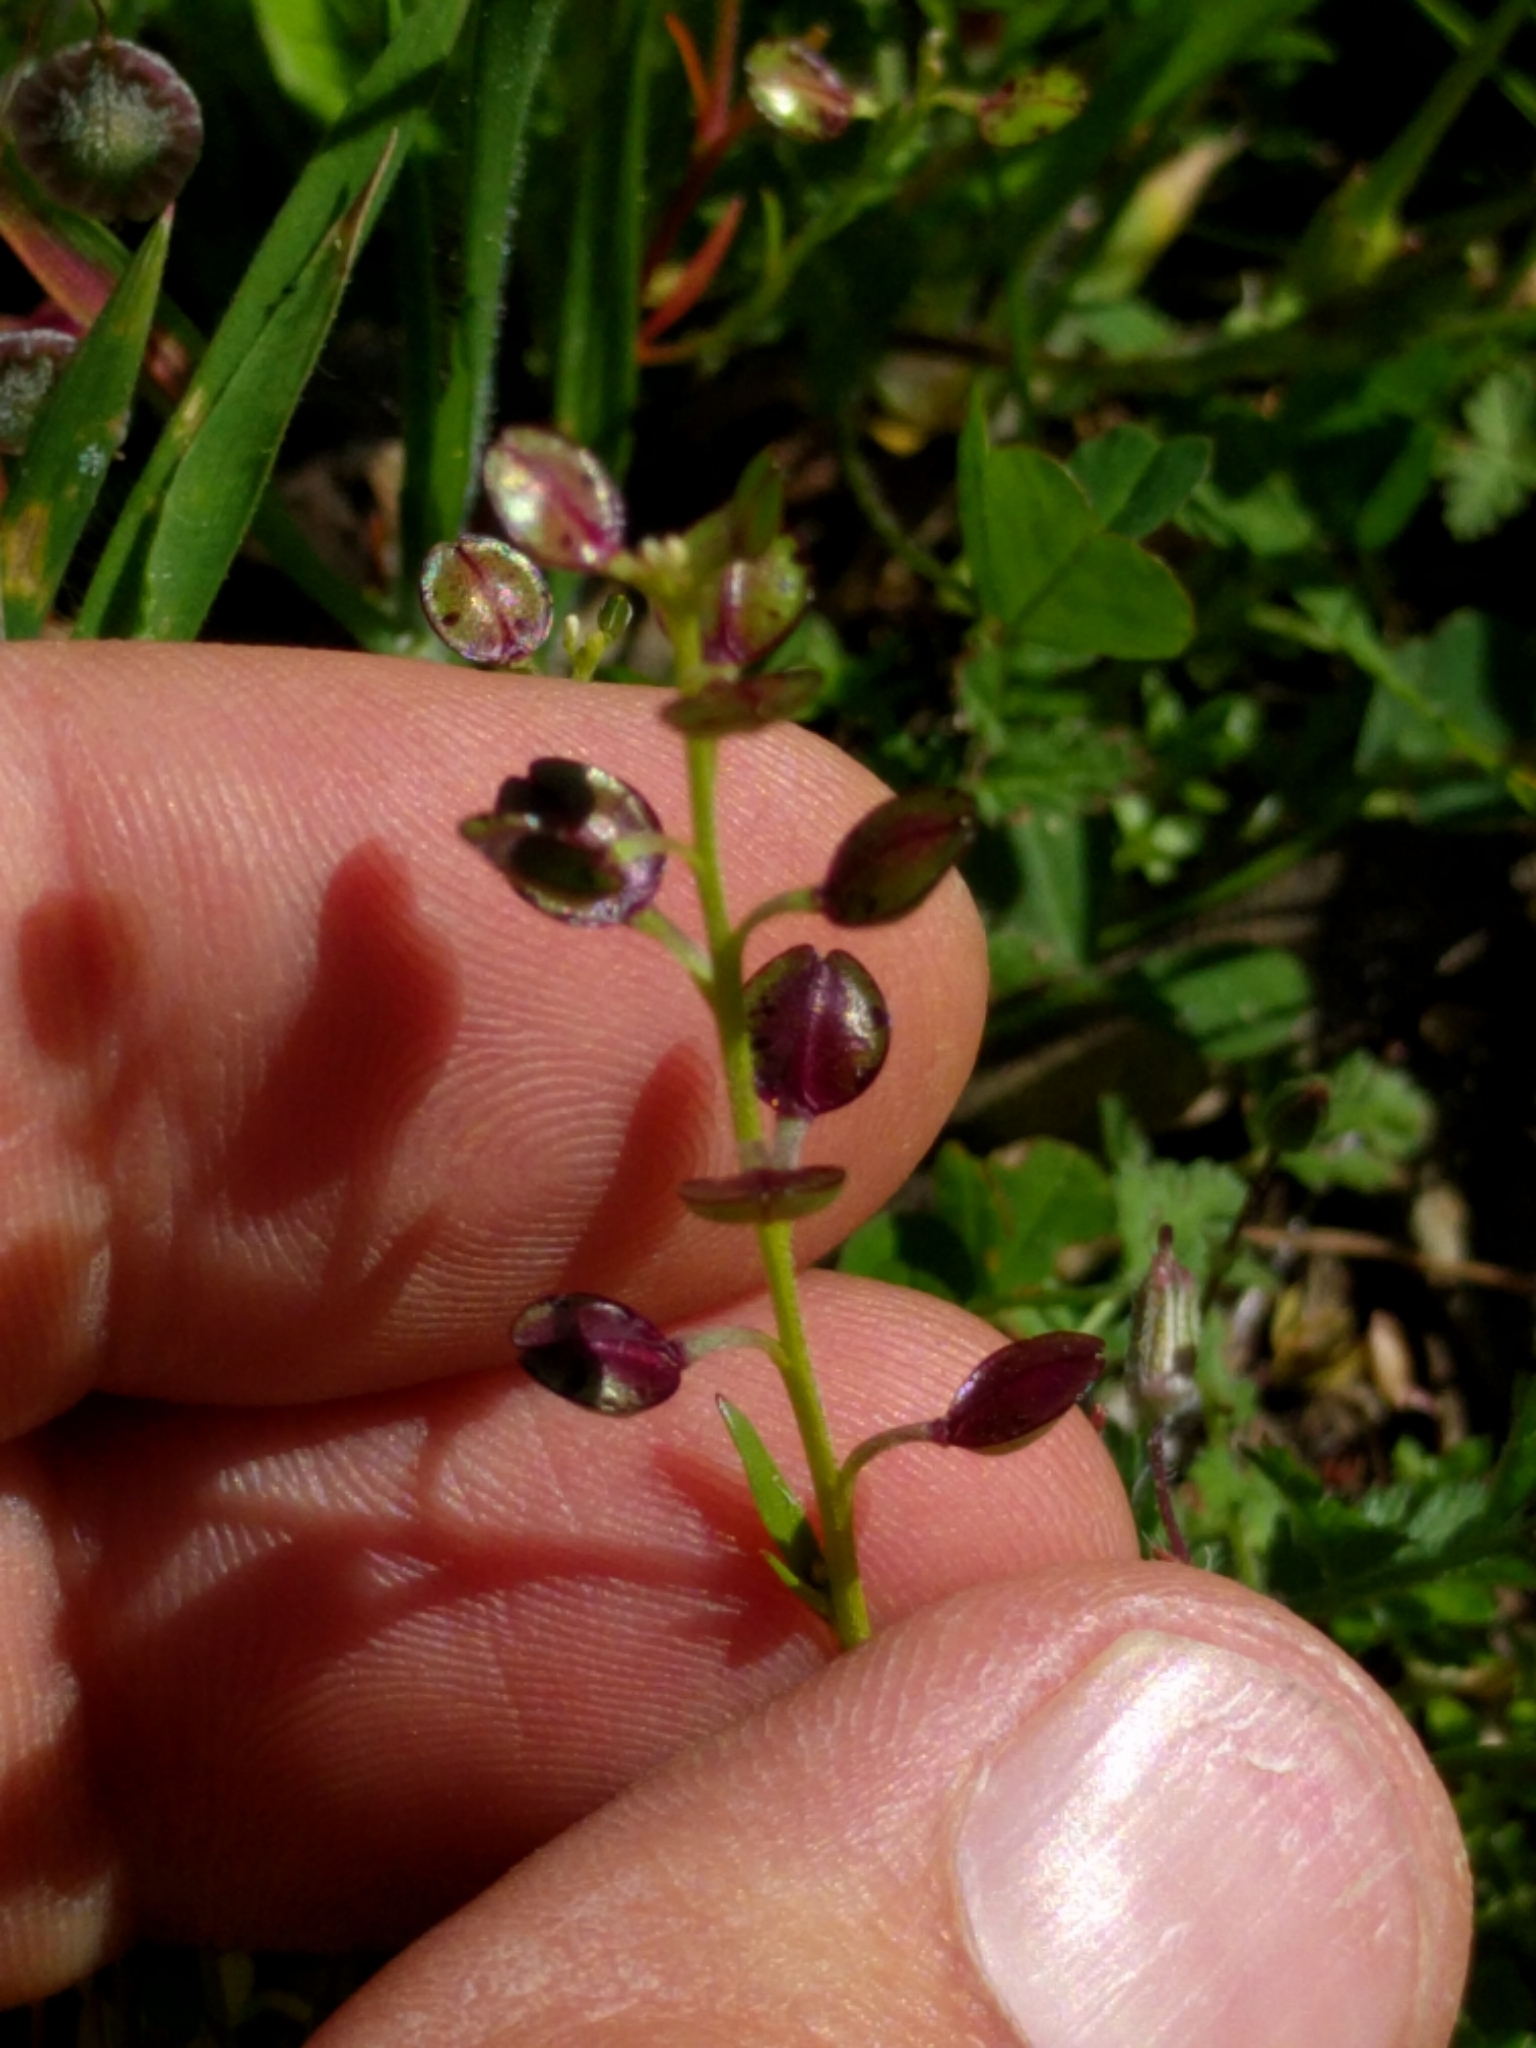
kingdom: Plantae
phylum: Tracheophyta
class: Magnoliopsida
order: Brassicales
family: Brassicaceae
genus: Lepidium
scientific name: Lepidium nitidum
